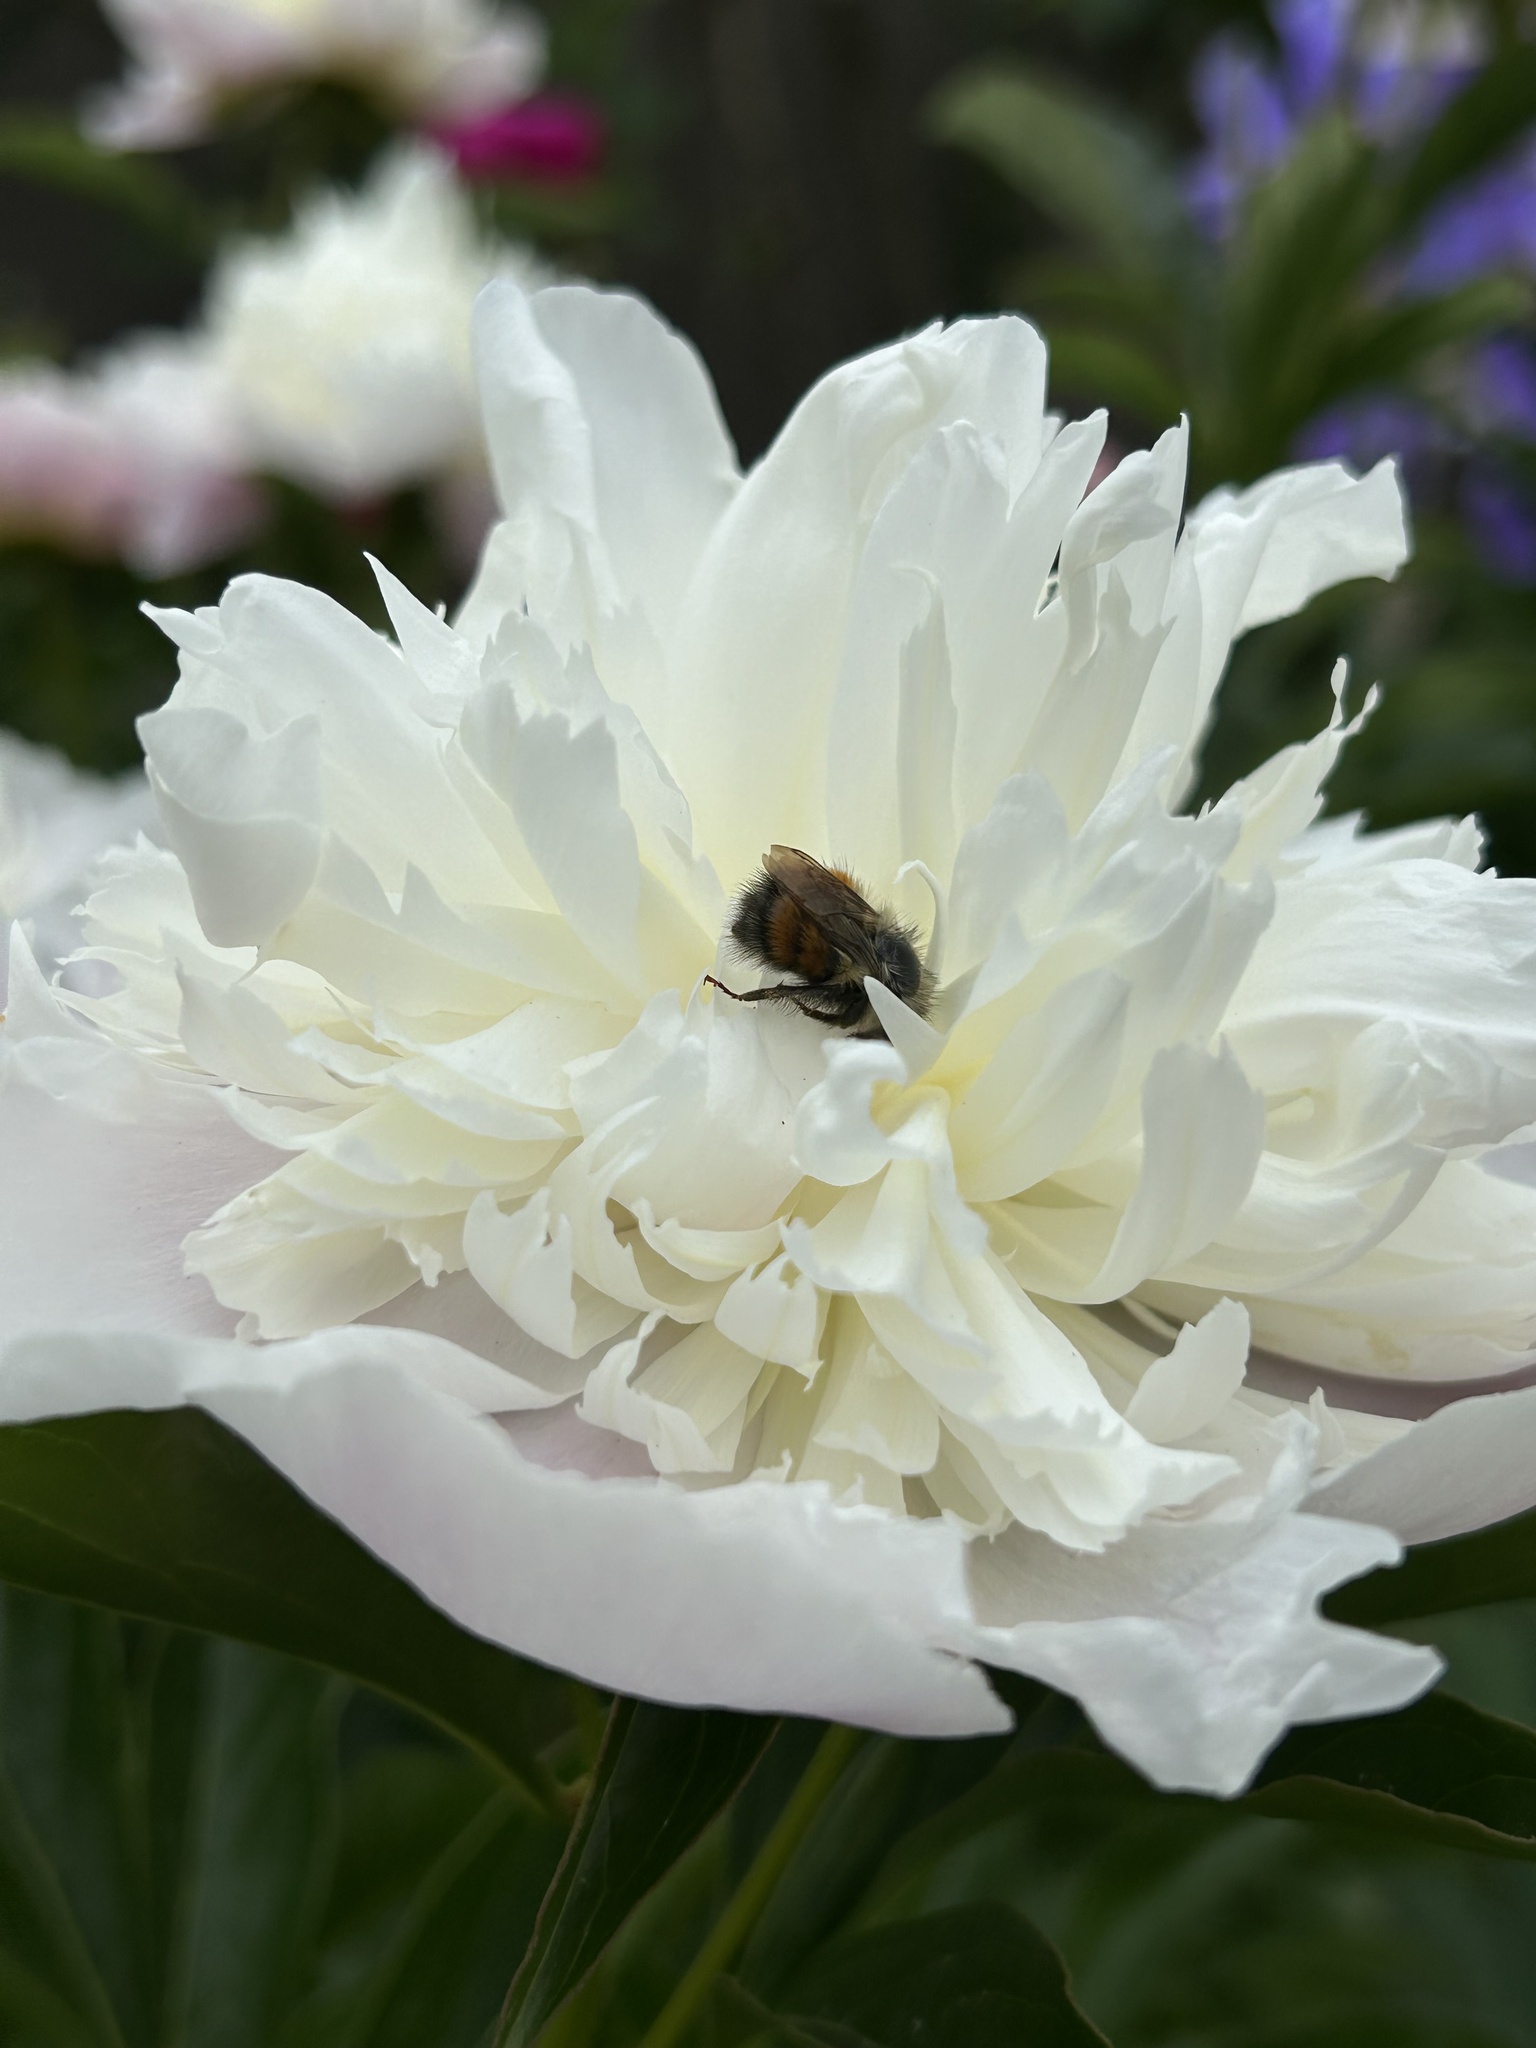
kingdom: Animalia
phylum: Arthropoda
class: Insecta
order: Hymenoptera
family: Apidae
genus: Bombus
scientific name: Bombus melanopygus
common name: Black tail bumble bee
